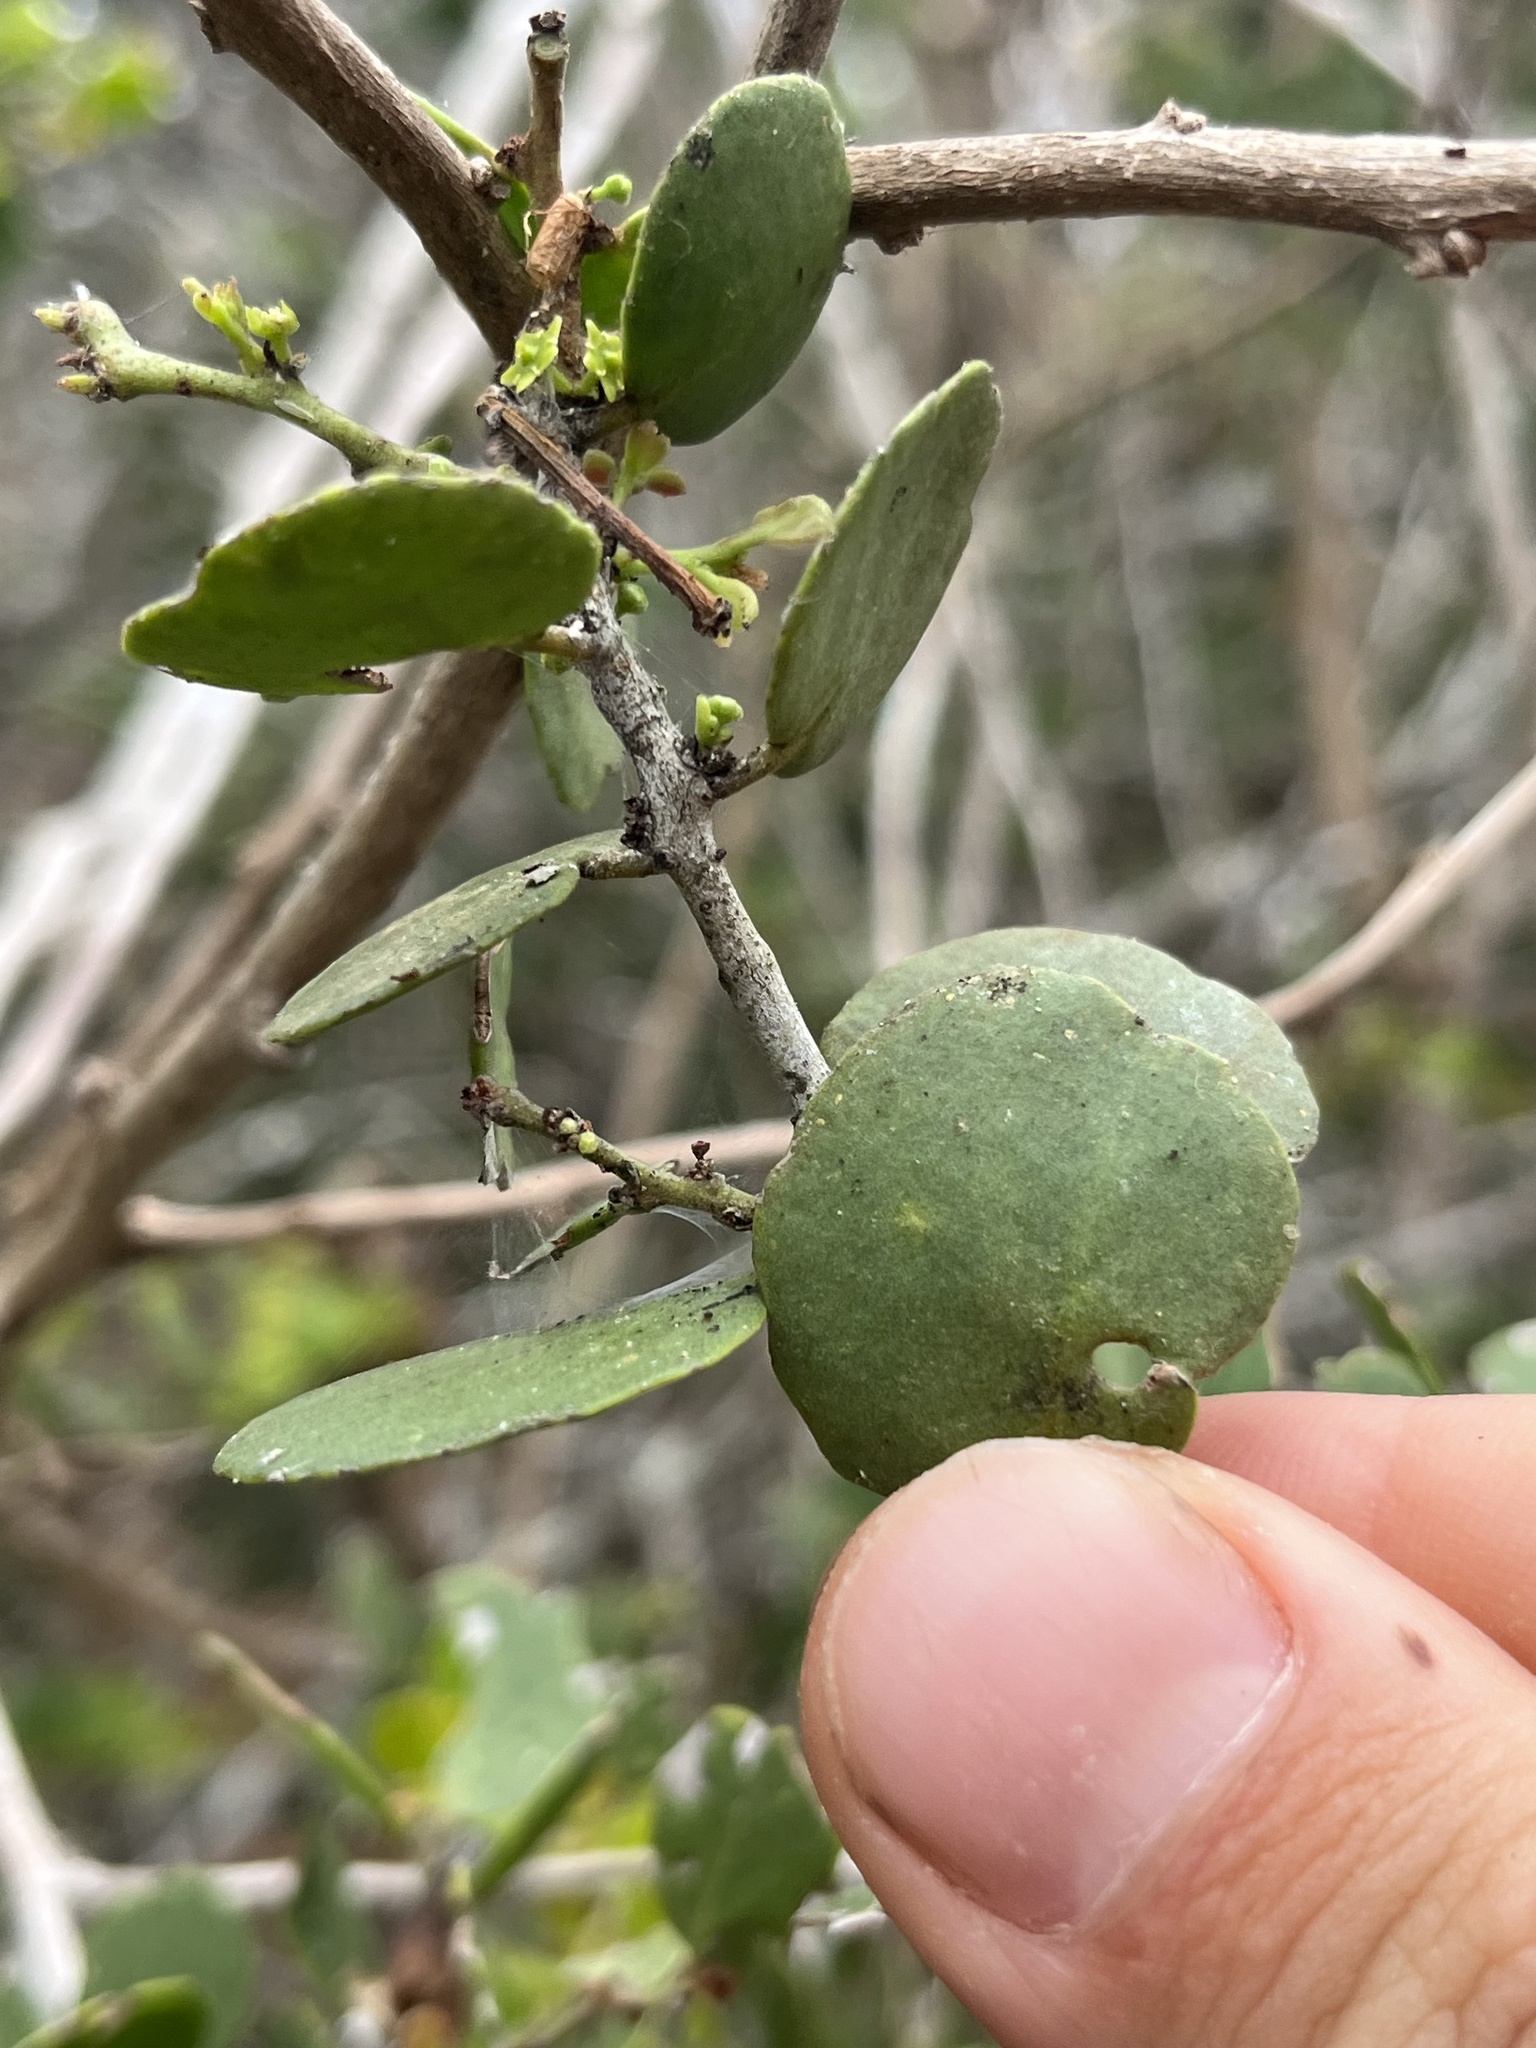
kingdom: Plantae
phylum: Tracheophyta
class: Magnoliopsida
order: Celastrales
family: Celastraceae
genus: Tricerma
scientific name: Tricerma octogonum
